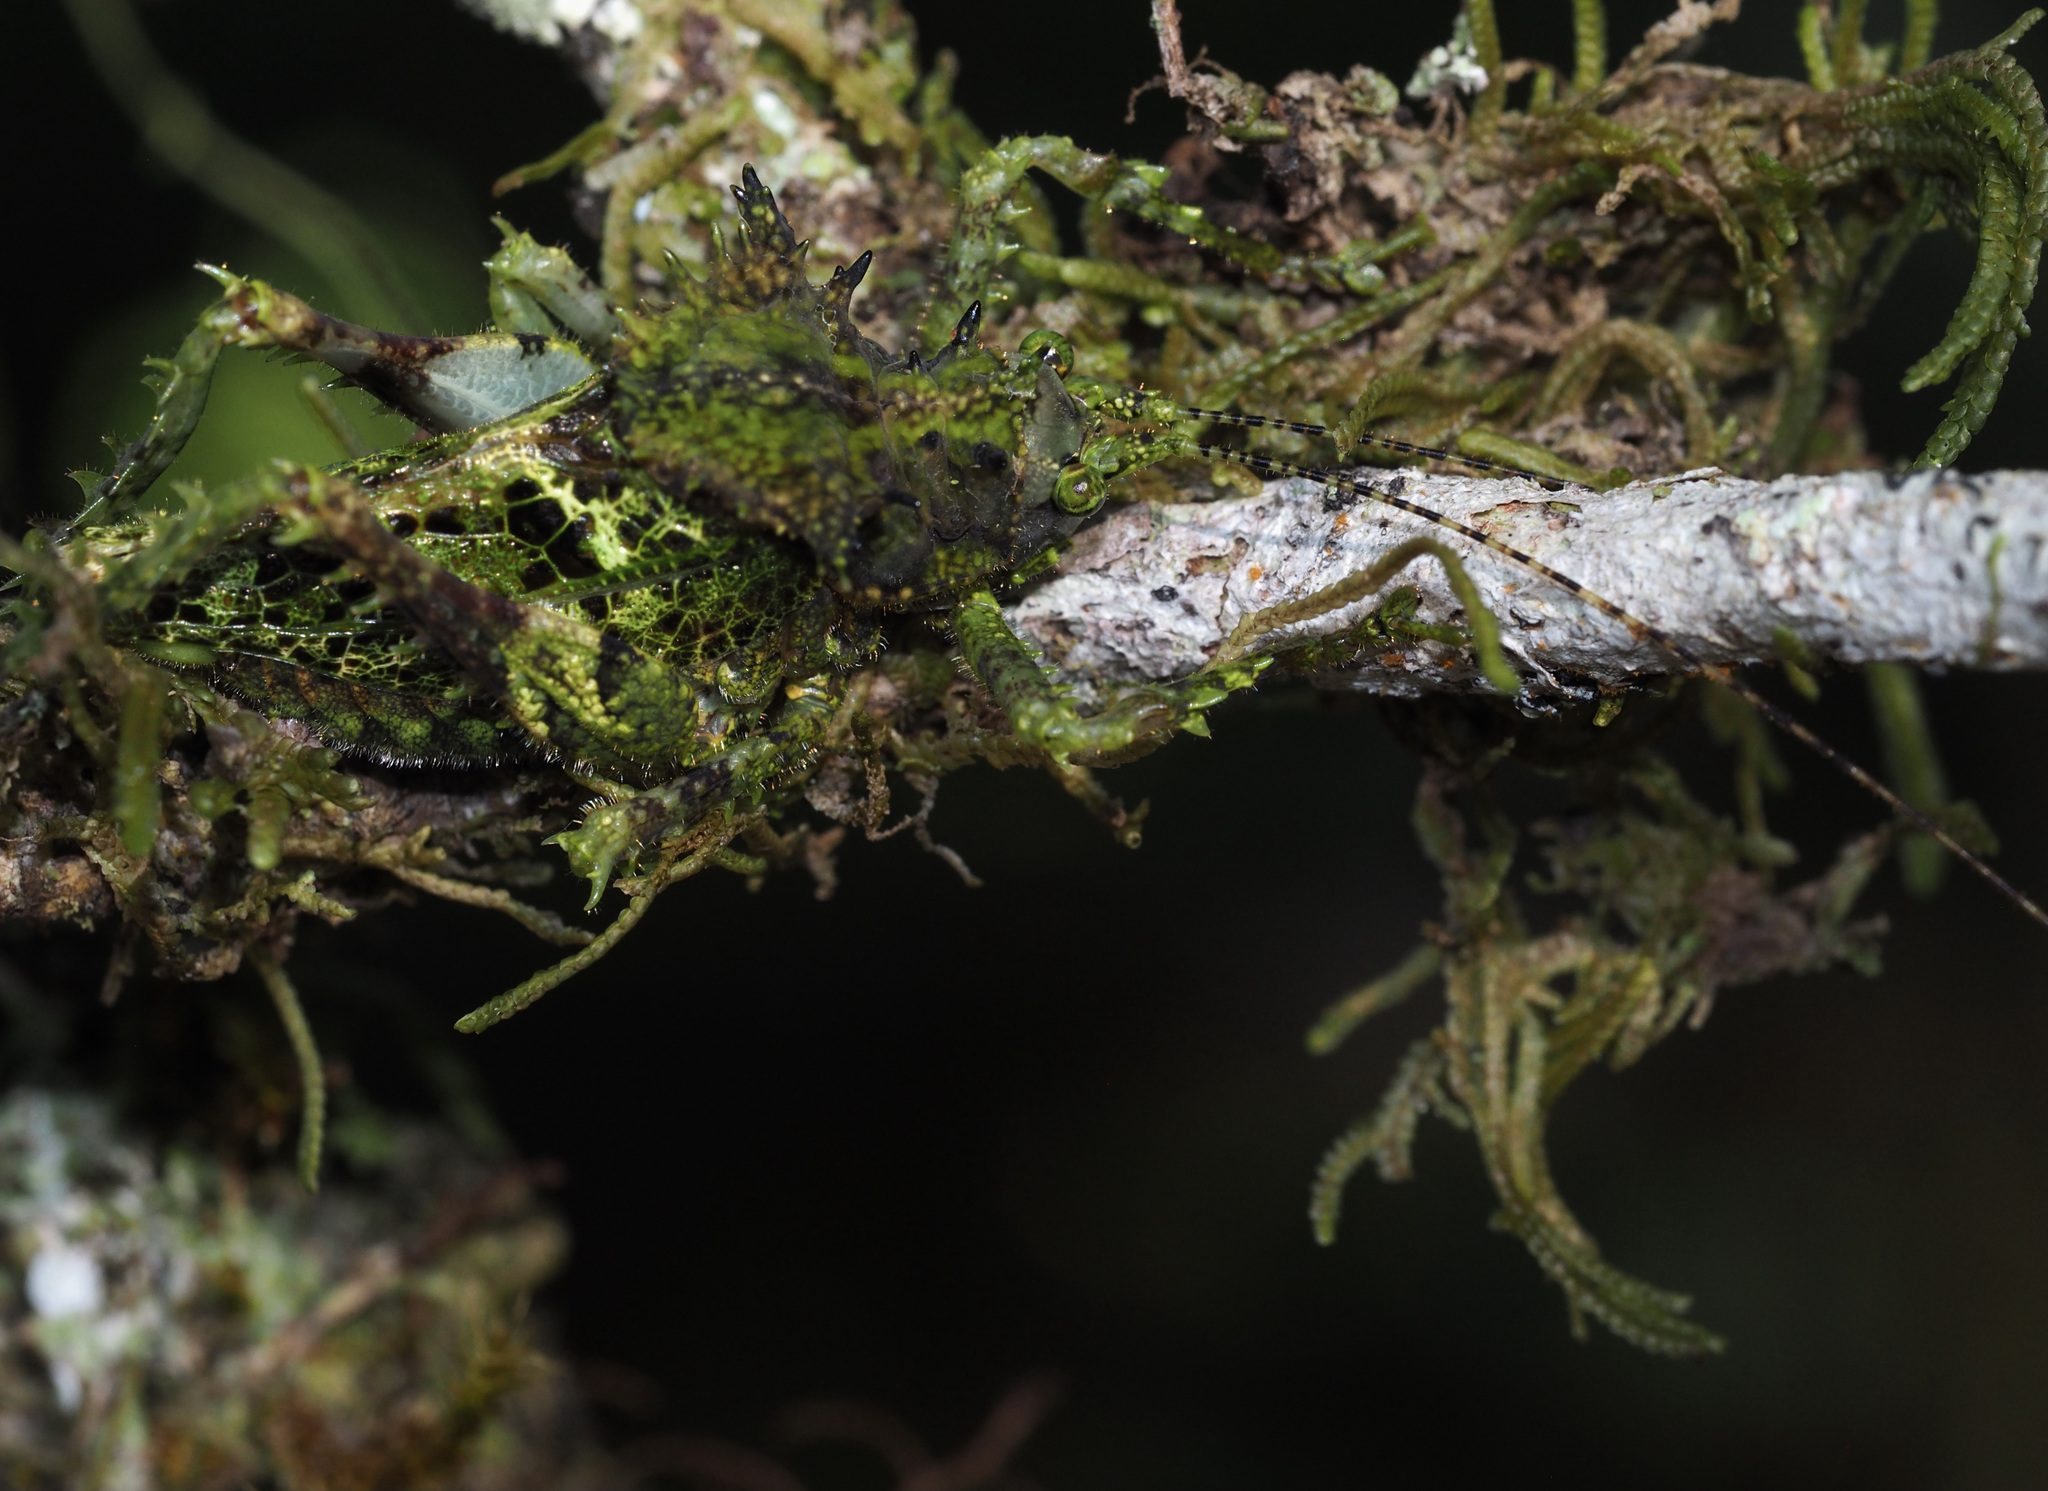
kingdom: Animalia
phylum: Arthropoda
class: Insecta
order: Orthoptera
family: Tettigoniidae
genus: Championica
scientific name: Championica cristulata
